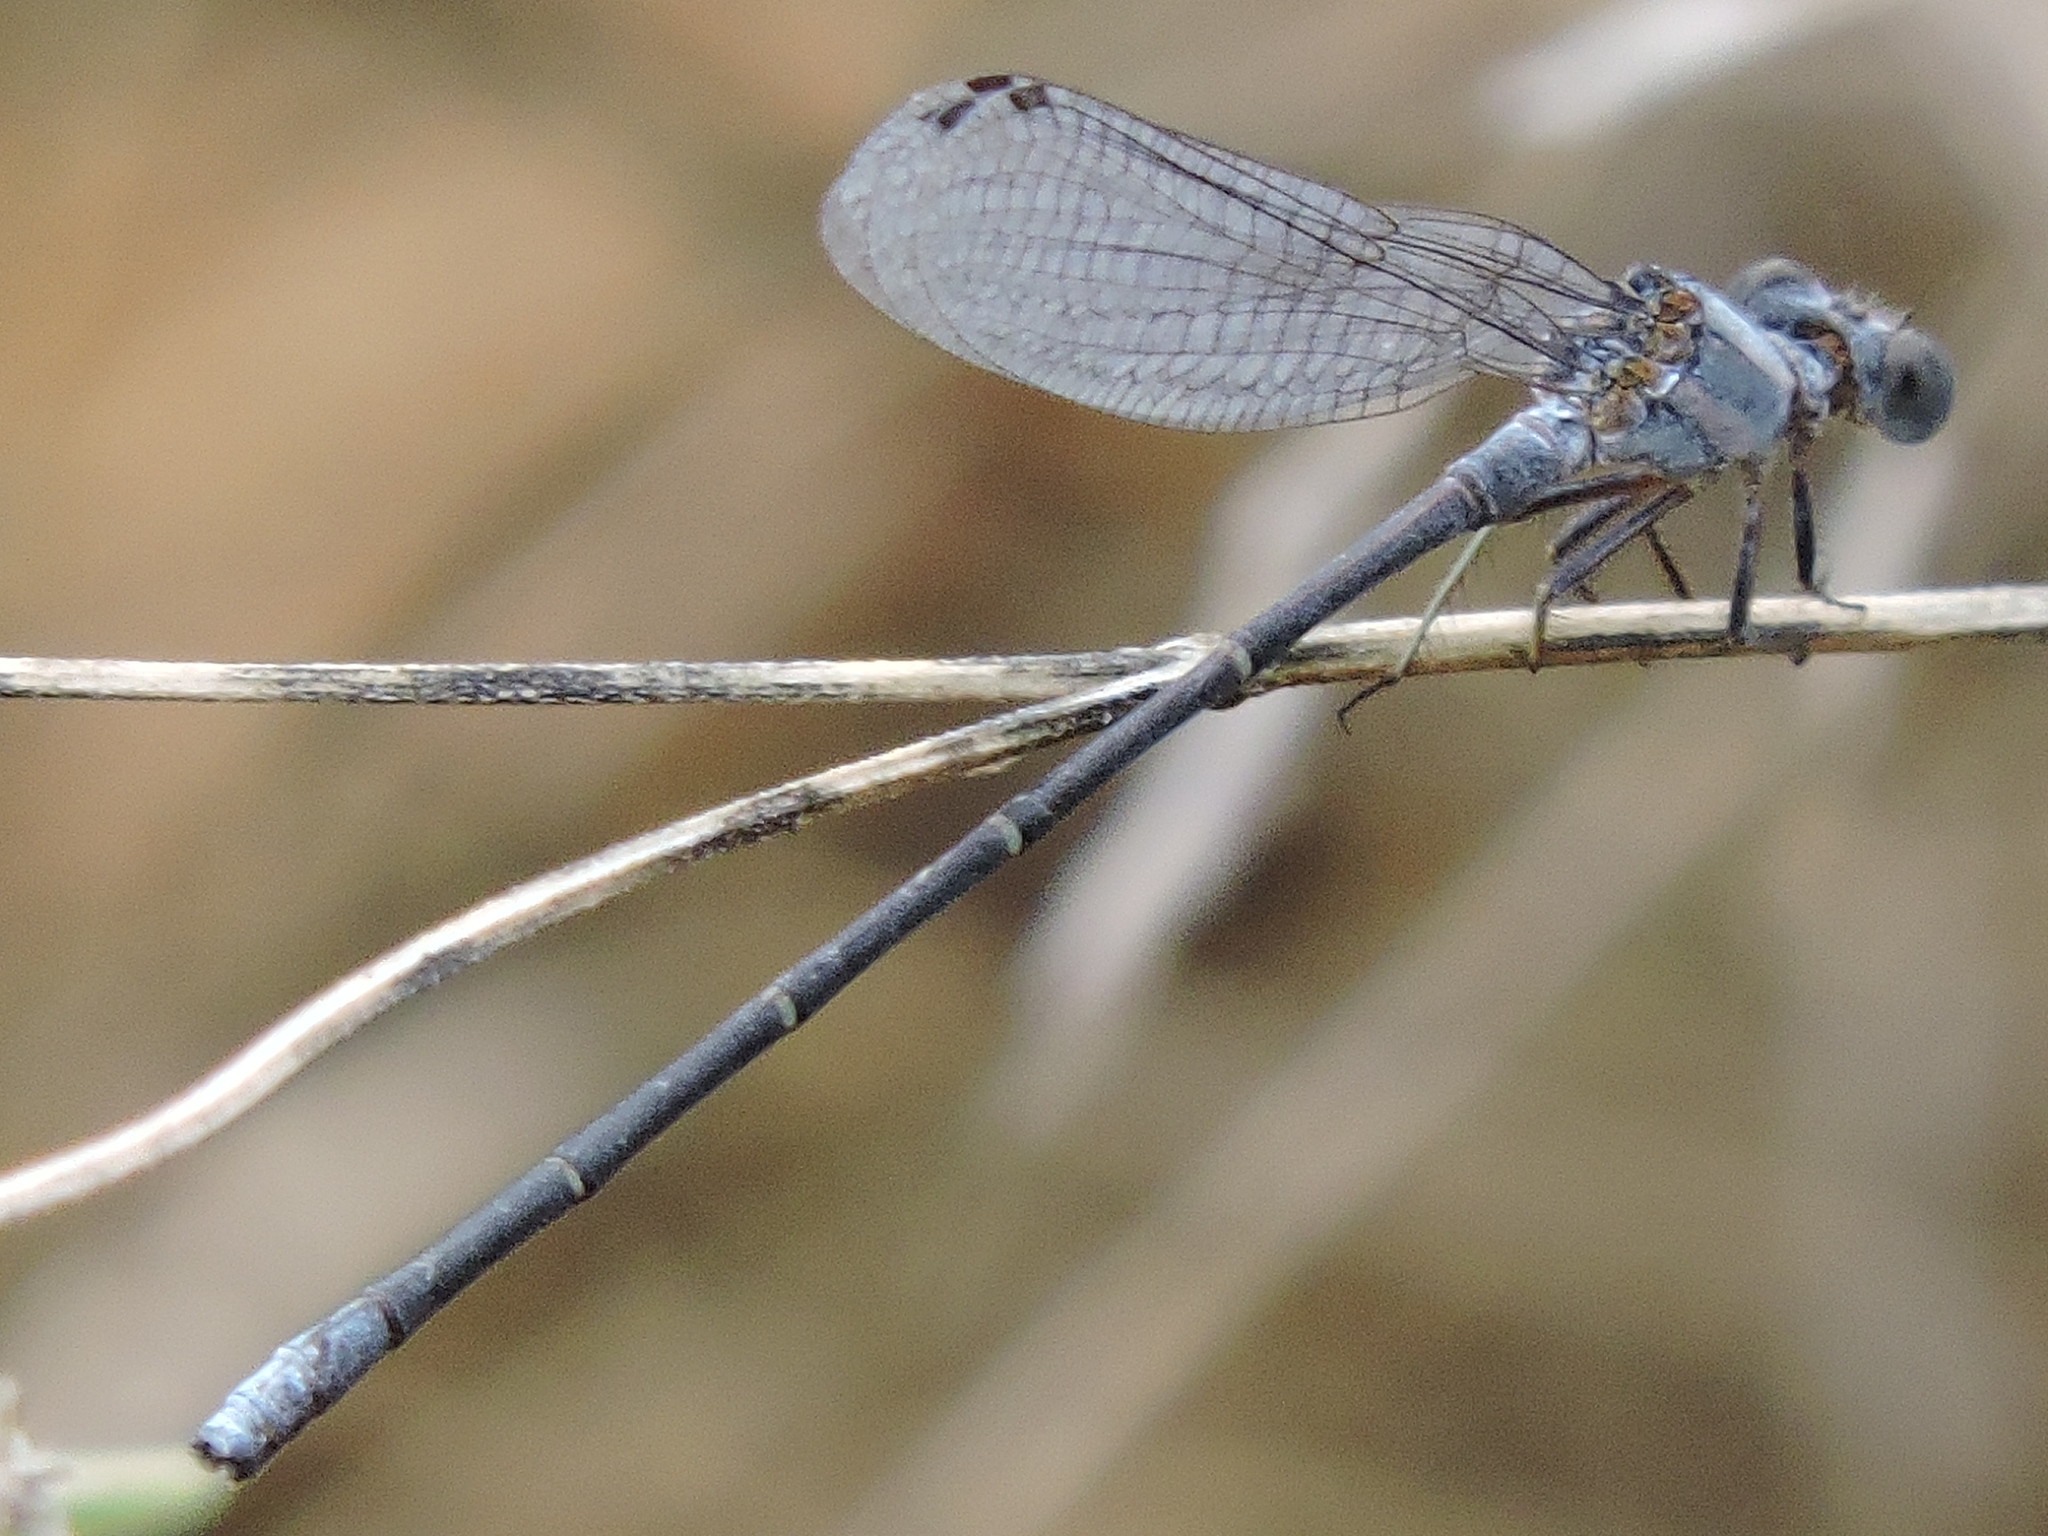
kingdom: Animalia
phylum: Arthropoda
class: Insecta
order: Odonata
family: Coenagrionidae
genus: Argia
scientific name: Argia moesta
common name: Powdered dancer
